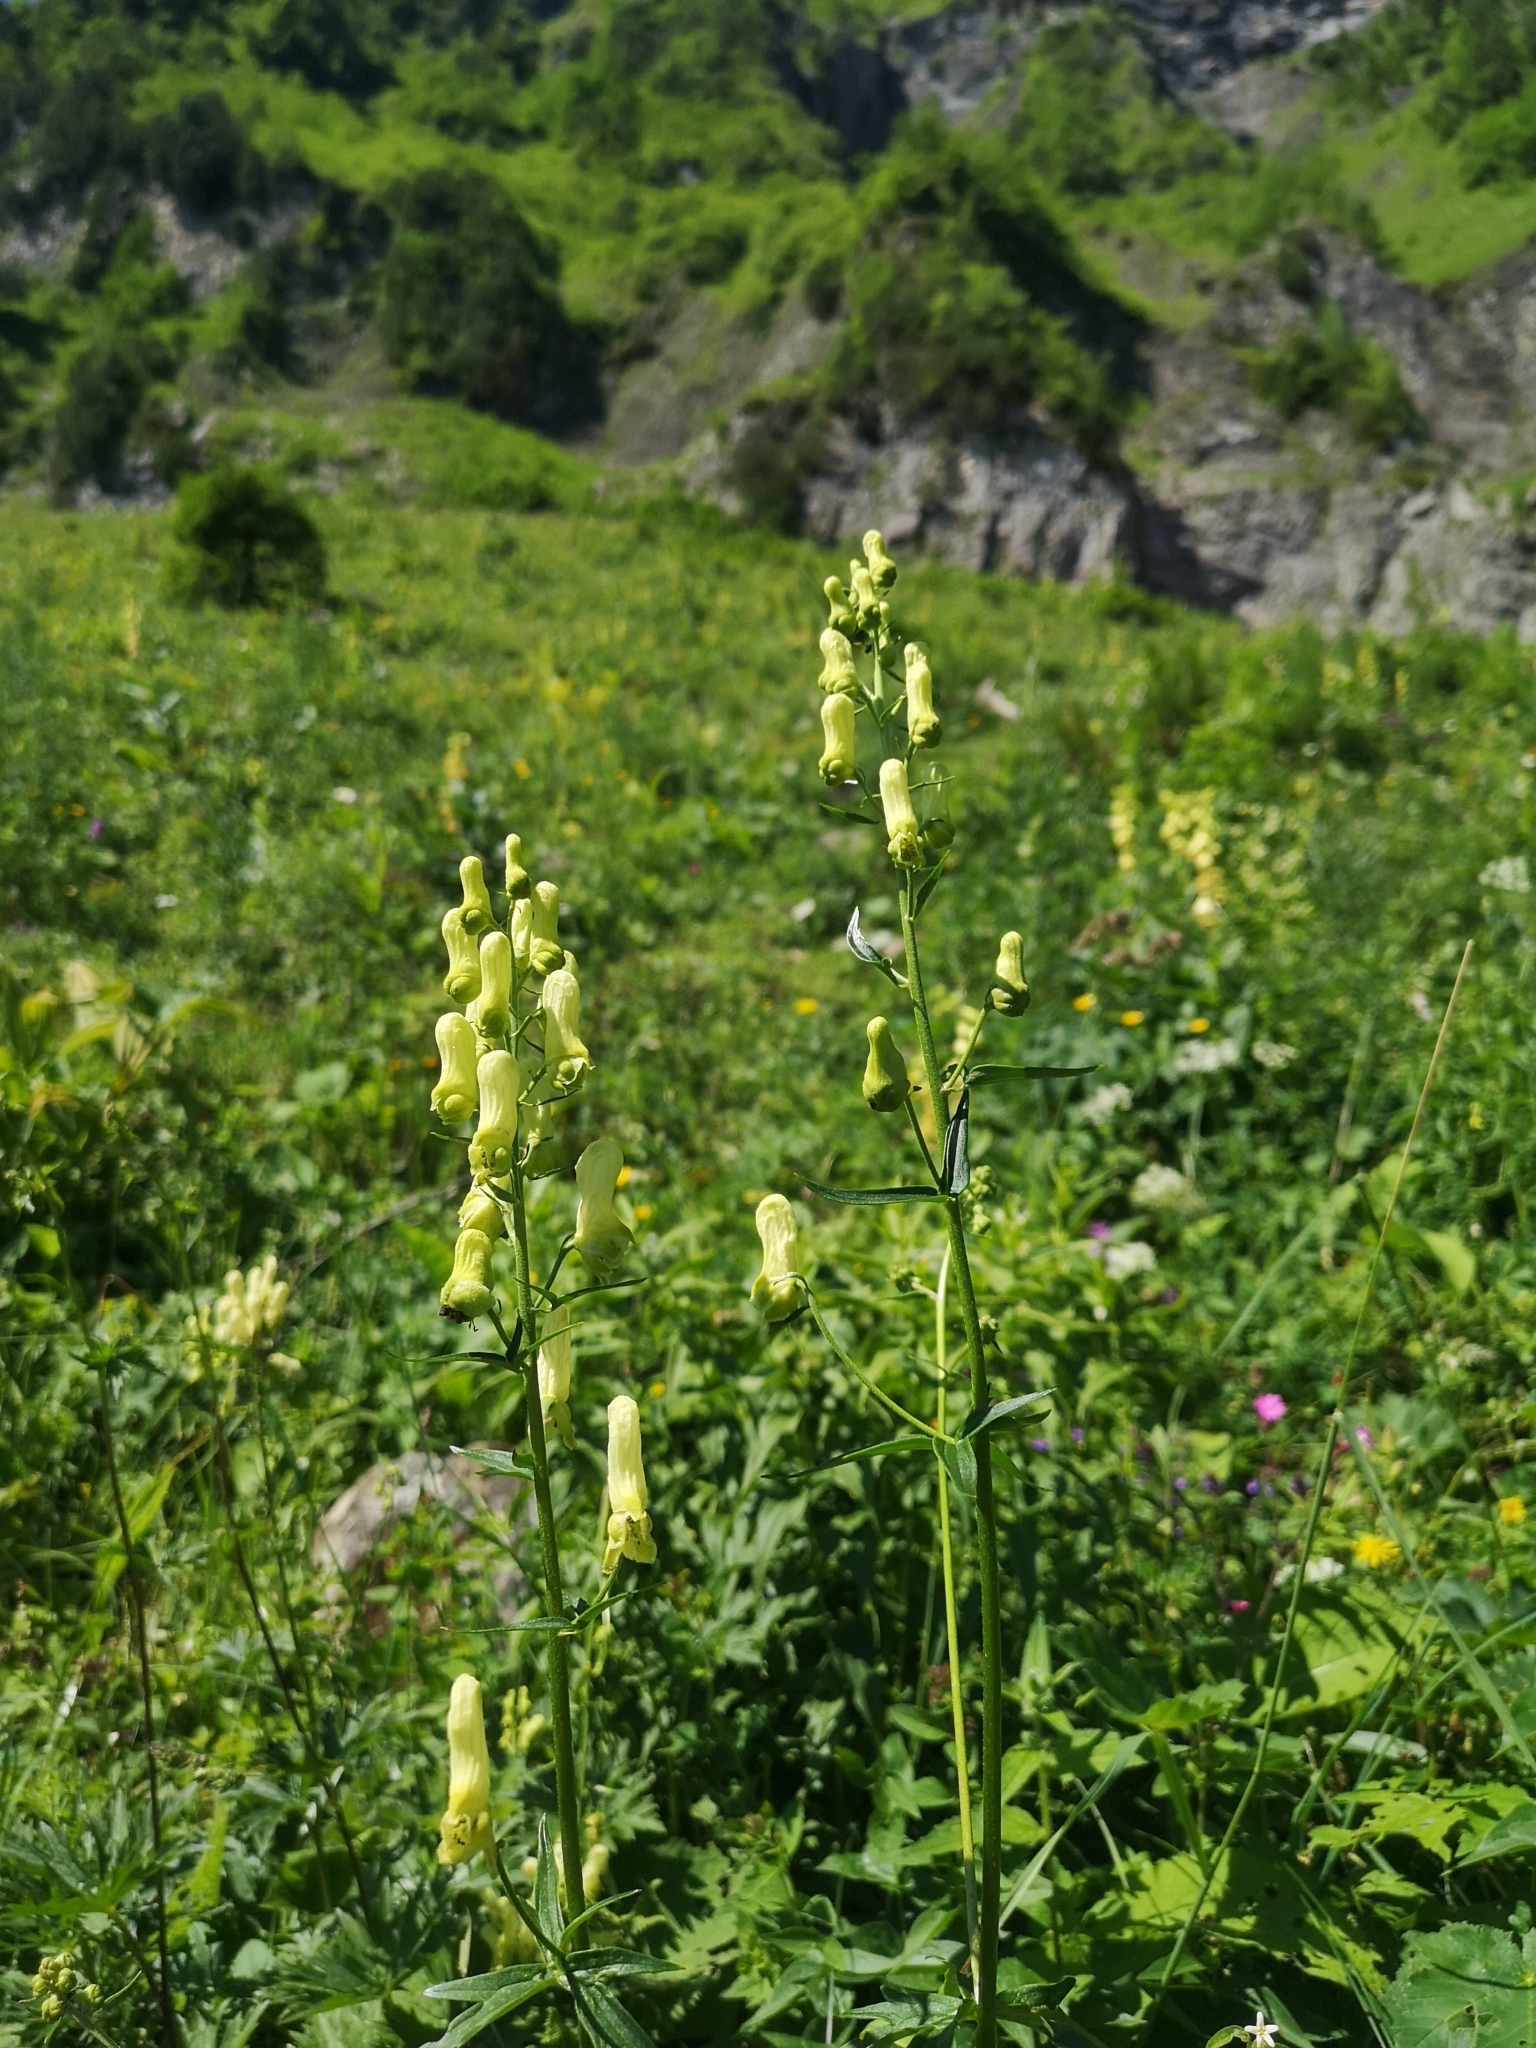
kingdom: Plantae
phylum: Tracheophyta
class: Magnoliopsida
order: Ranunculales
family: Ranunculaceae
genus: Aconitum
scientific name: Aconitum lycoctonum
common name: Wolf's-bane
